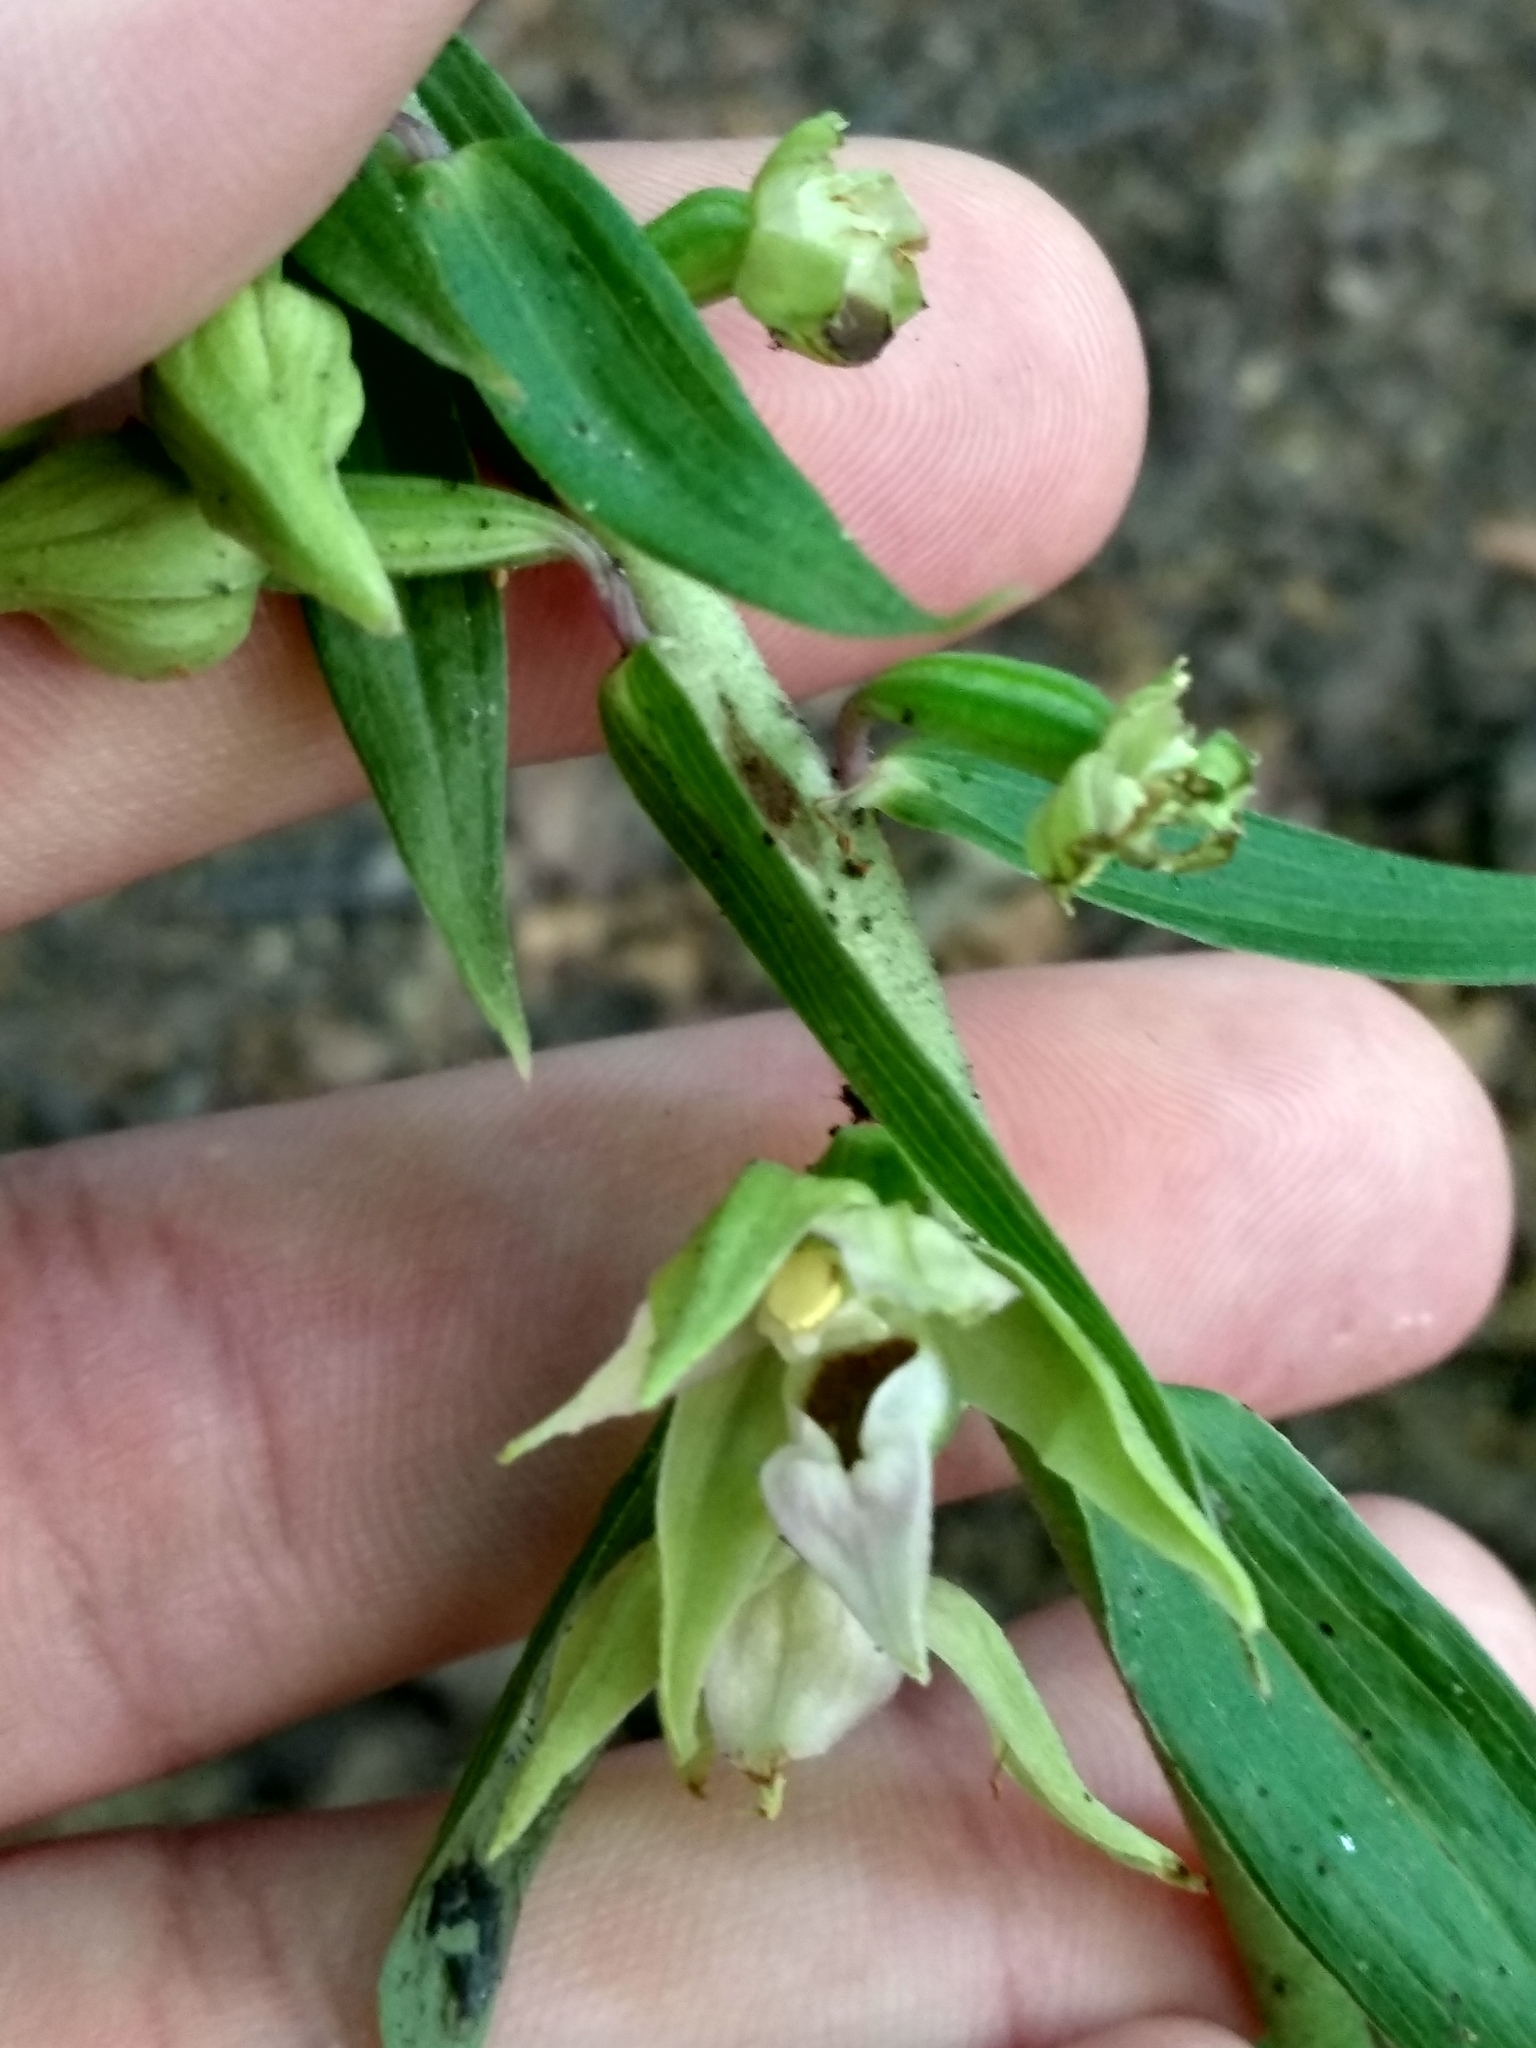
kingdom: Plantae
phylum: Tracheophyta
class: Liliopsida
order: Asparagales
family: Orchidaceae
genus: Epipactis
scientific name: Epipactis helleborine
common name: Broad-leaved helleborine
